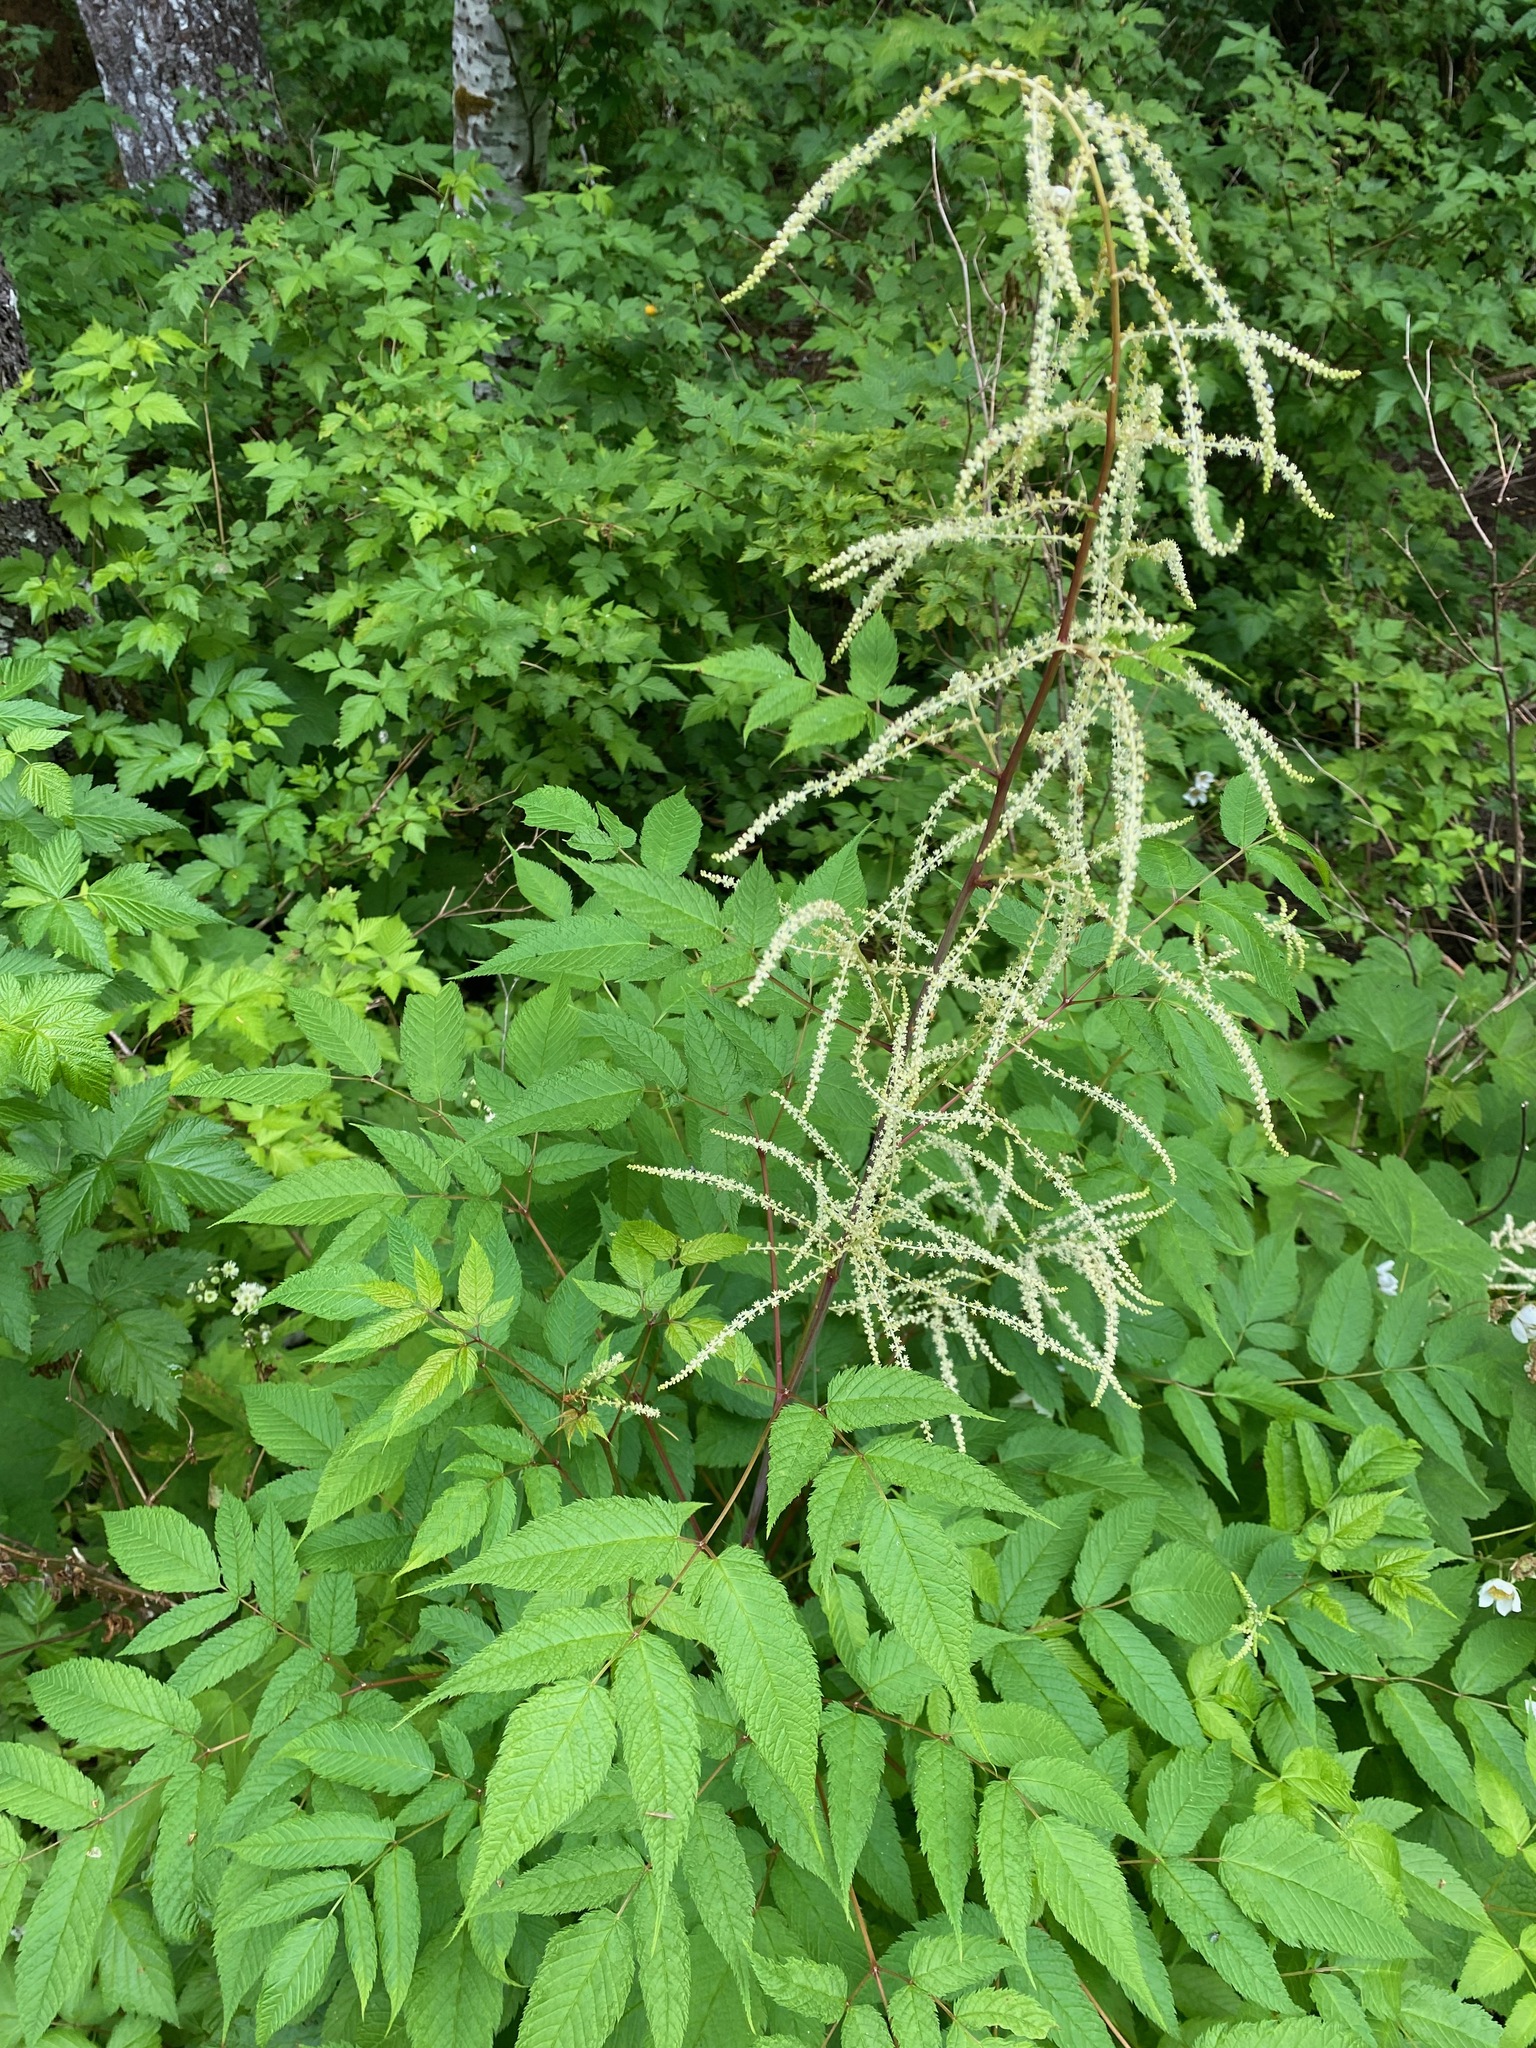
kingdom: Plantae
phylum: Tracheophyta
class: Magnoliopsida
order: Rosales
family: Rosaceae
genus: Aruncus
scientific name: Aruncus dioicus
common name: Buck's-beard
